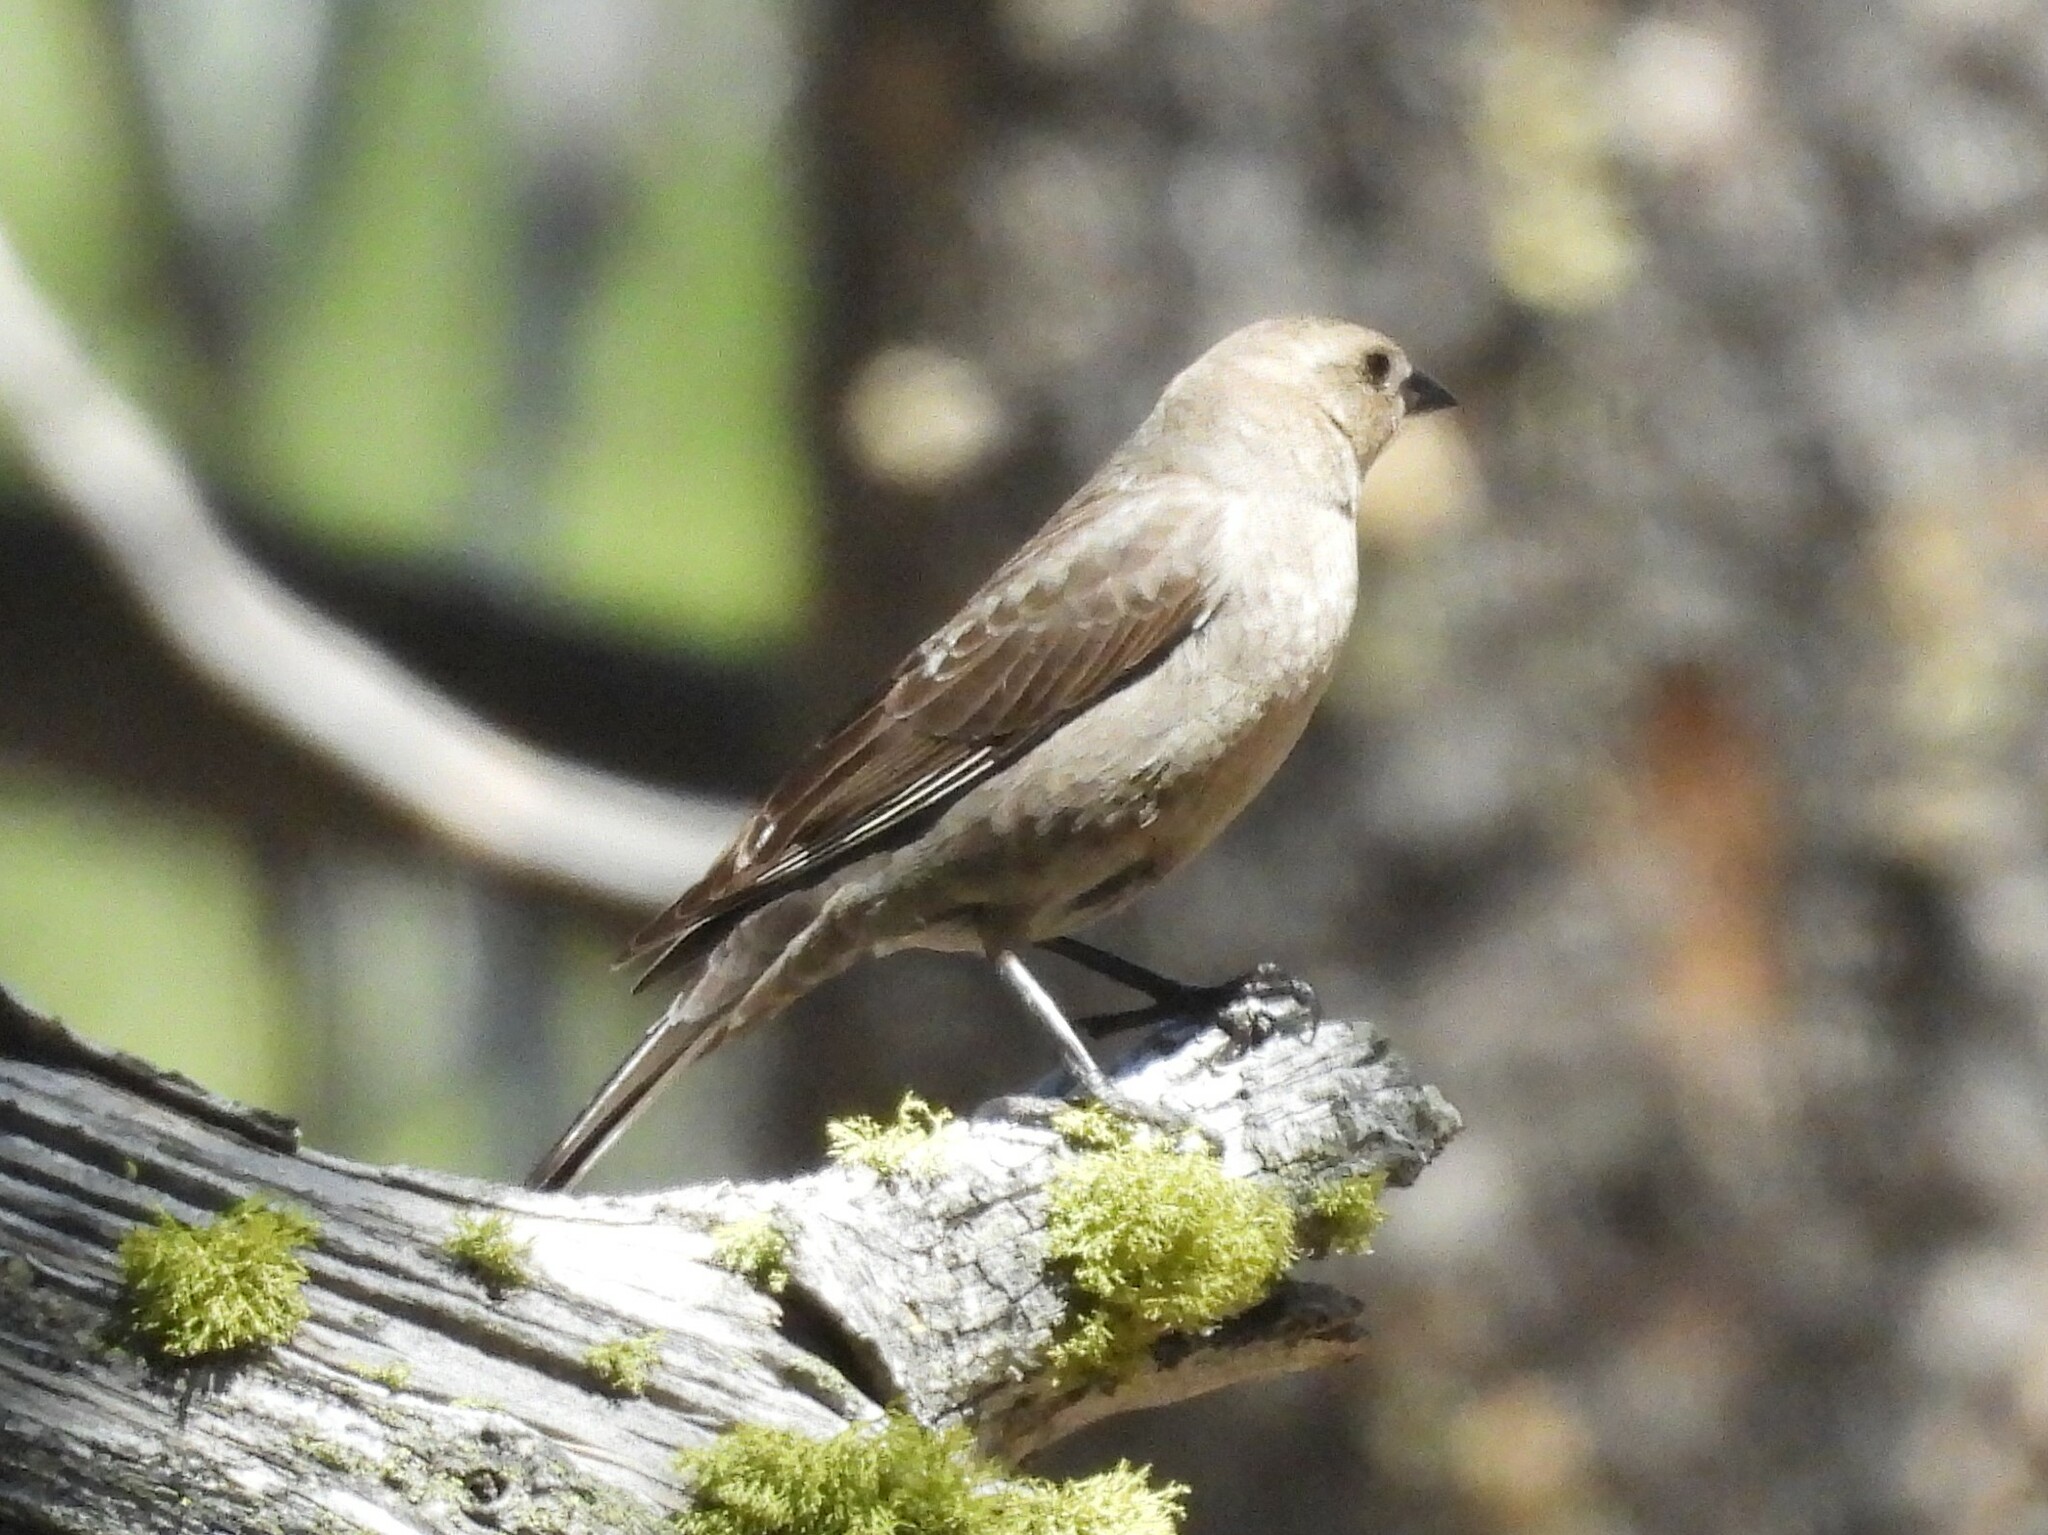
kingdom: Animalia
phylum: Chordata
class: Aves
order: Passeriformes
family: Icteridae
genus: Molothrus
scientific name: Molothrus ater
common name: Brown-headed cowbird
